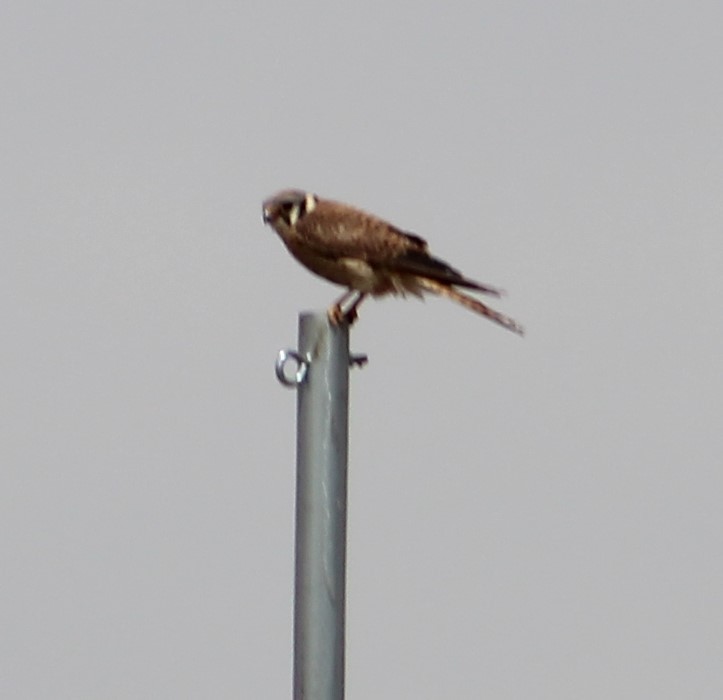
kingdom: Animalia
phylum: Chordata
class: Aves
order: Falconiformes
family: Falconidae
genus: Falco
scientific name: Falco sparverius
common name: American kestrel
